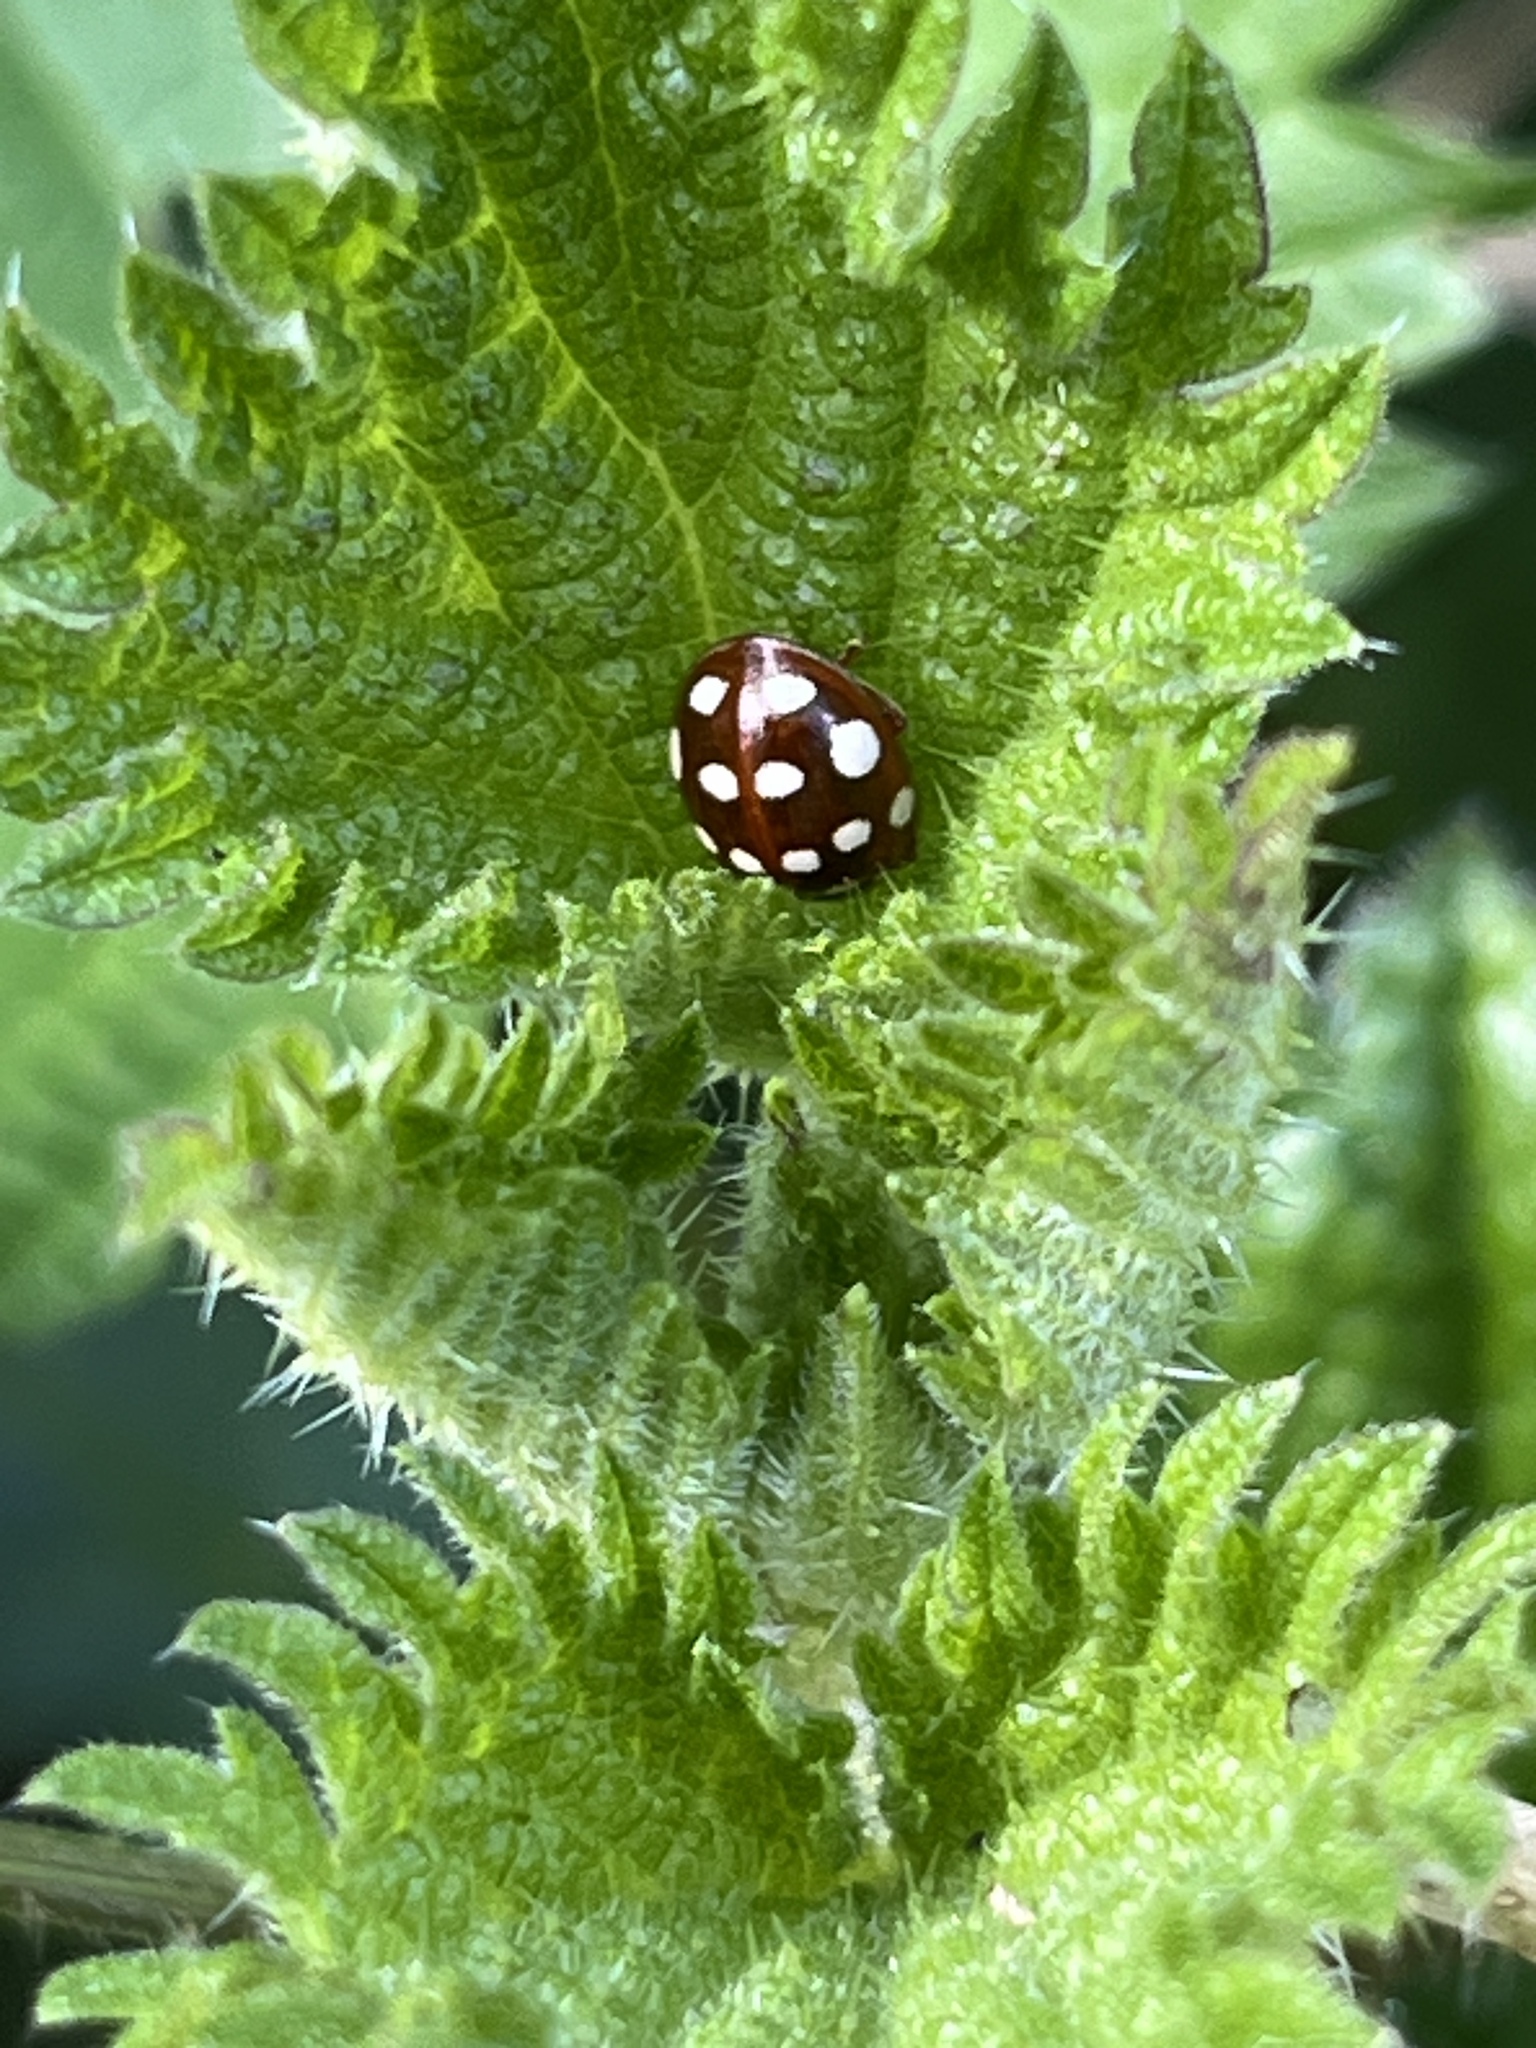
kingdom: Animalia
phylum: Arthropoda
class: Insecta
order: Coleoptera
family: Coccinellidae
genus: Calvia
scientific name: Calvia quatuordecimguttata
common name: Cream-spot ladybird
